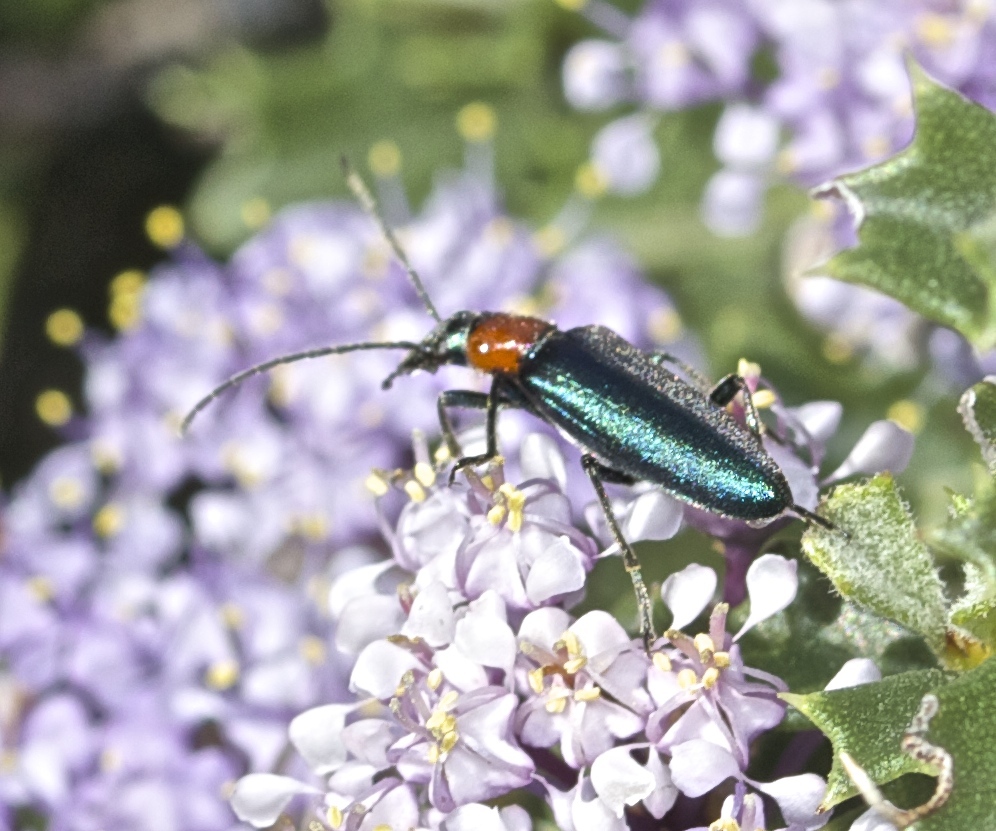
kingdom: Animalia
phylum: Arthropoda
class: Insecta
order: Coleoptera
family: Oedemeridae
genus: Eumecomera
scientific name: Eumecomera bicolor
